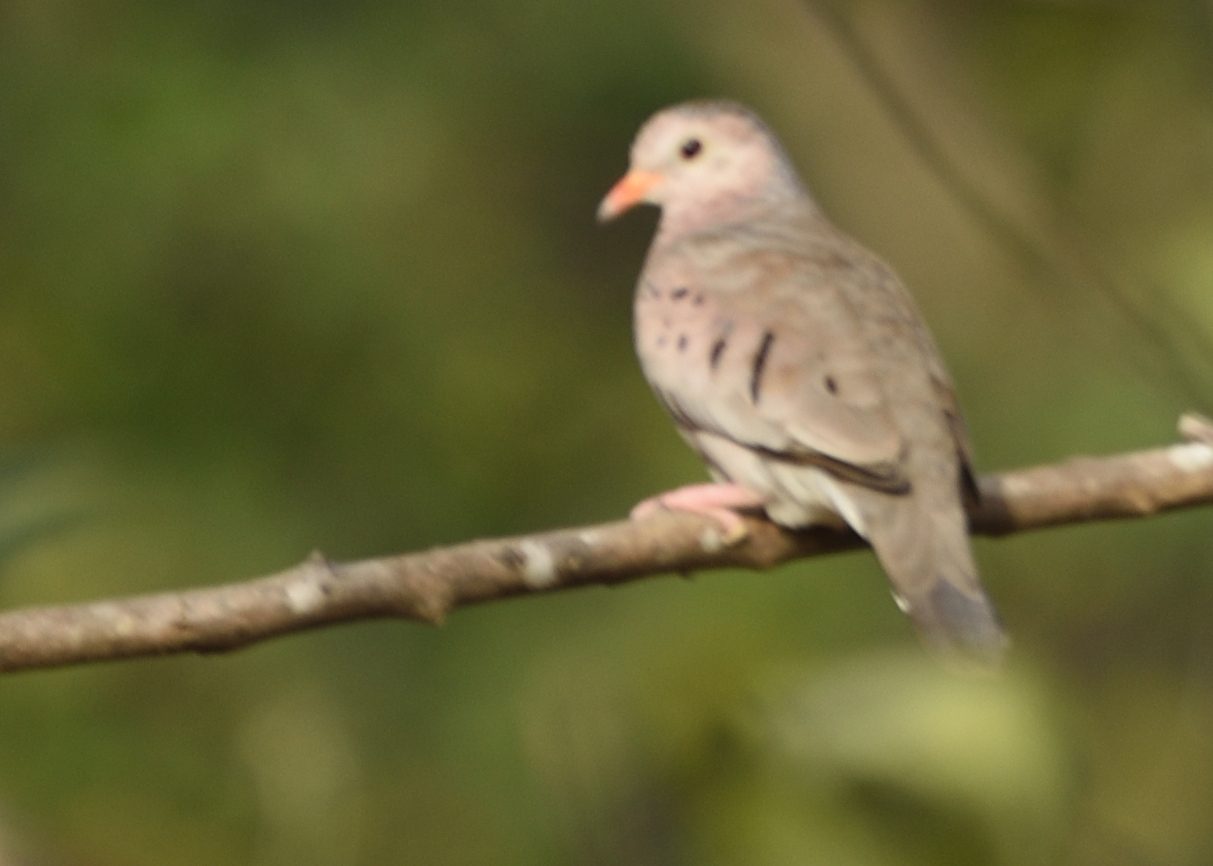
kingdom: Animalia
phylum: Chordata
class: Aves
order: Columbiformes
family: Columbidae
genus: Columbina
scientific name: Columbina passerina
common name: Common ground-dove
